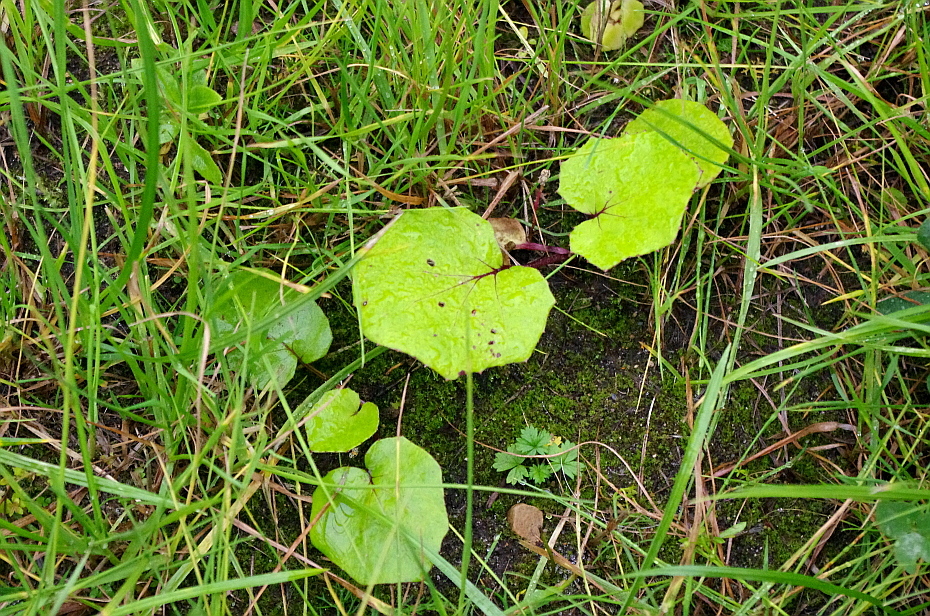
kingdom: Plantae
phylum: Tracheophyta
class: Magnoliopsida
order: Rosales
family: Rosaceae
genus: Potentilla
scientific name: Potentilla intermedia
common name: Downy cinquefoil
